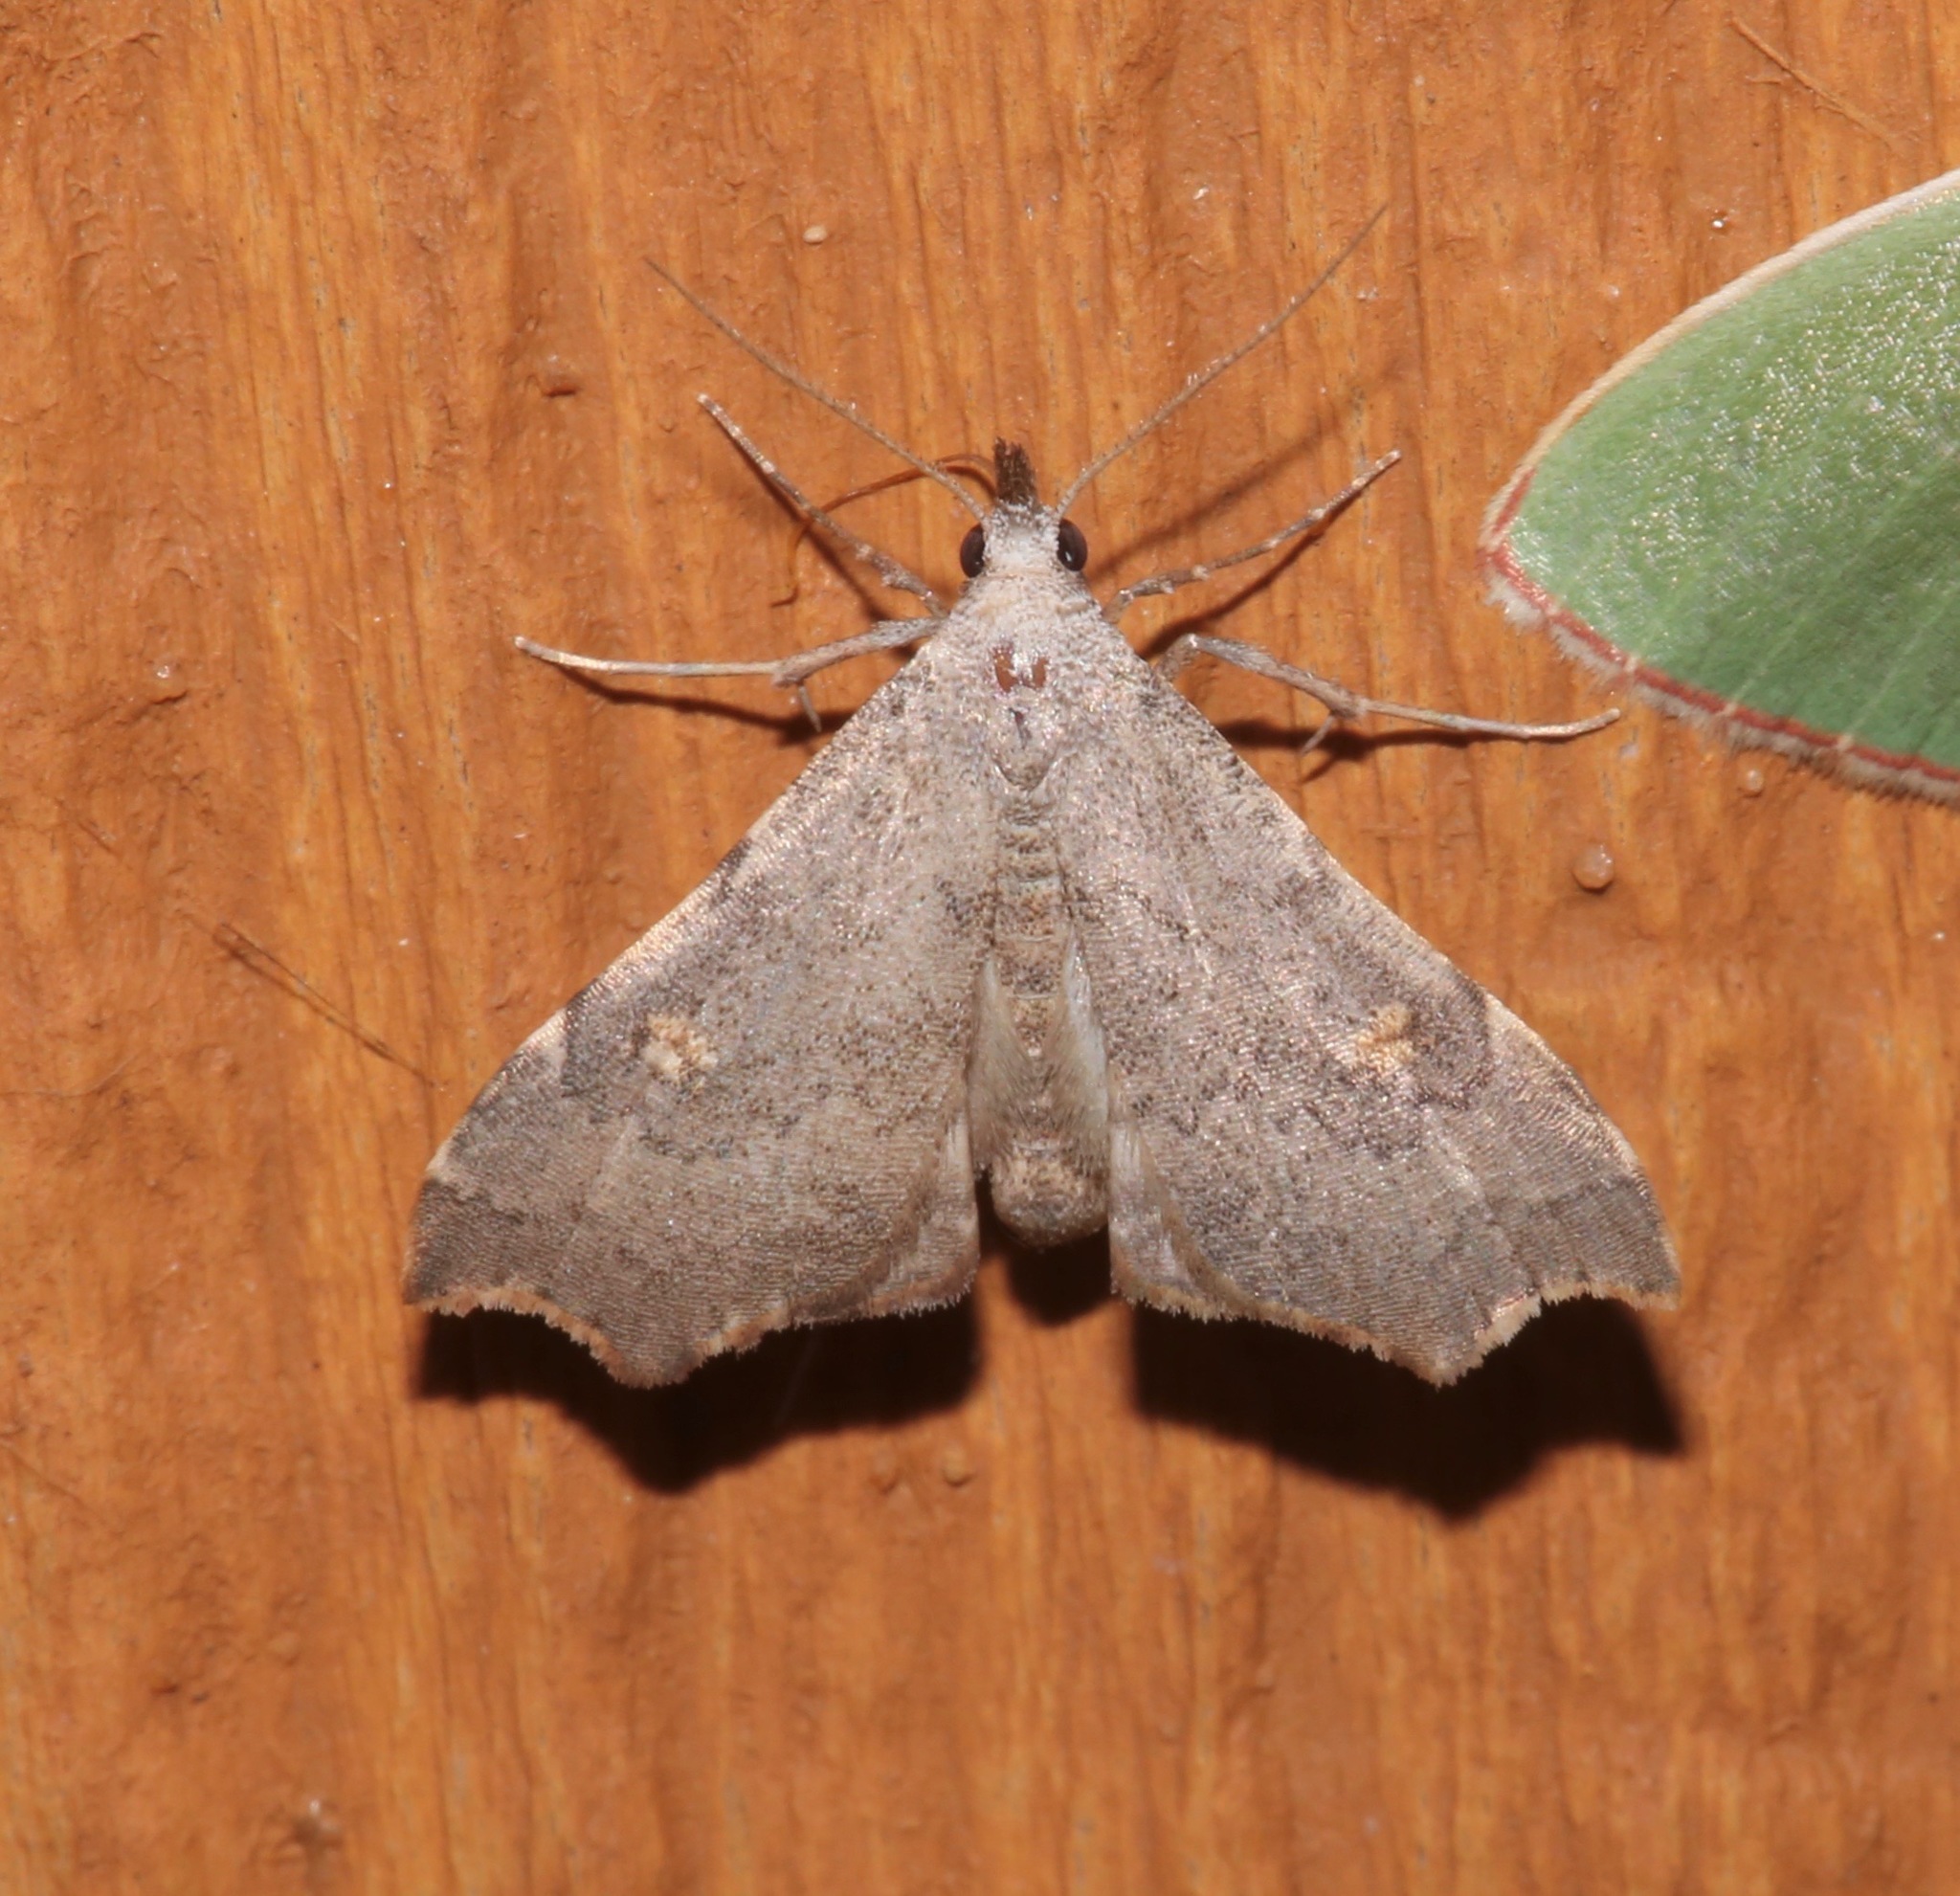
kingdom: Animalia
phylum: Arthropoda
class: Insecta
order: Lepidoptera
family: Erebidae
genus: Redectis
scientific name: Redectis pygmaea
